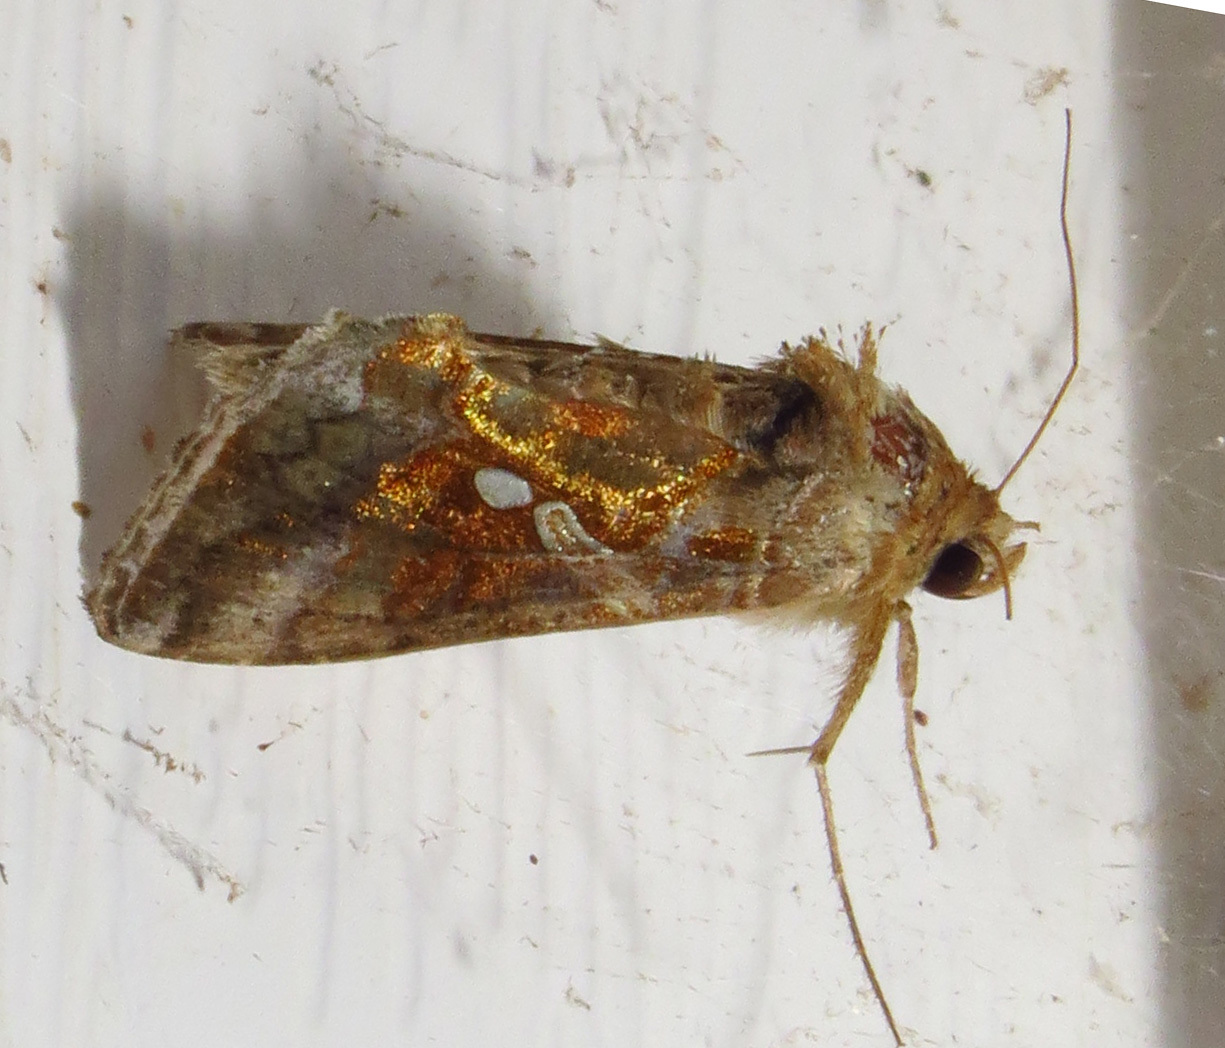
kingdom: Animalia
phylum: Arthropoda
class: Insecta
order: Lepidoptera
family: Noctuidae
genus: Chrysodeixis
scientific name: Chrysodeixis includens
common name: Cutworm moth
